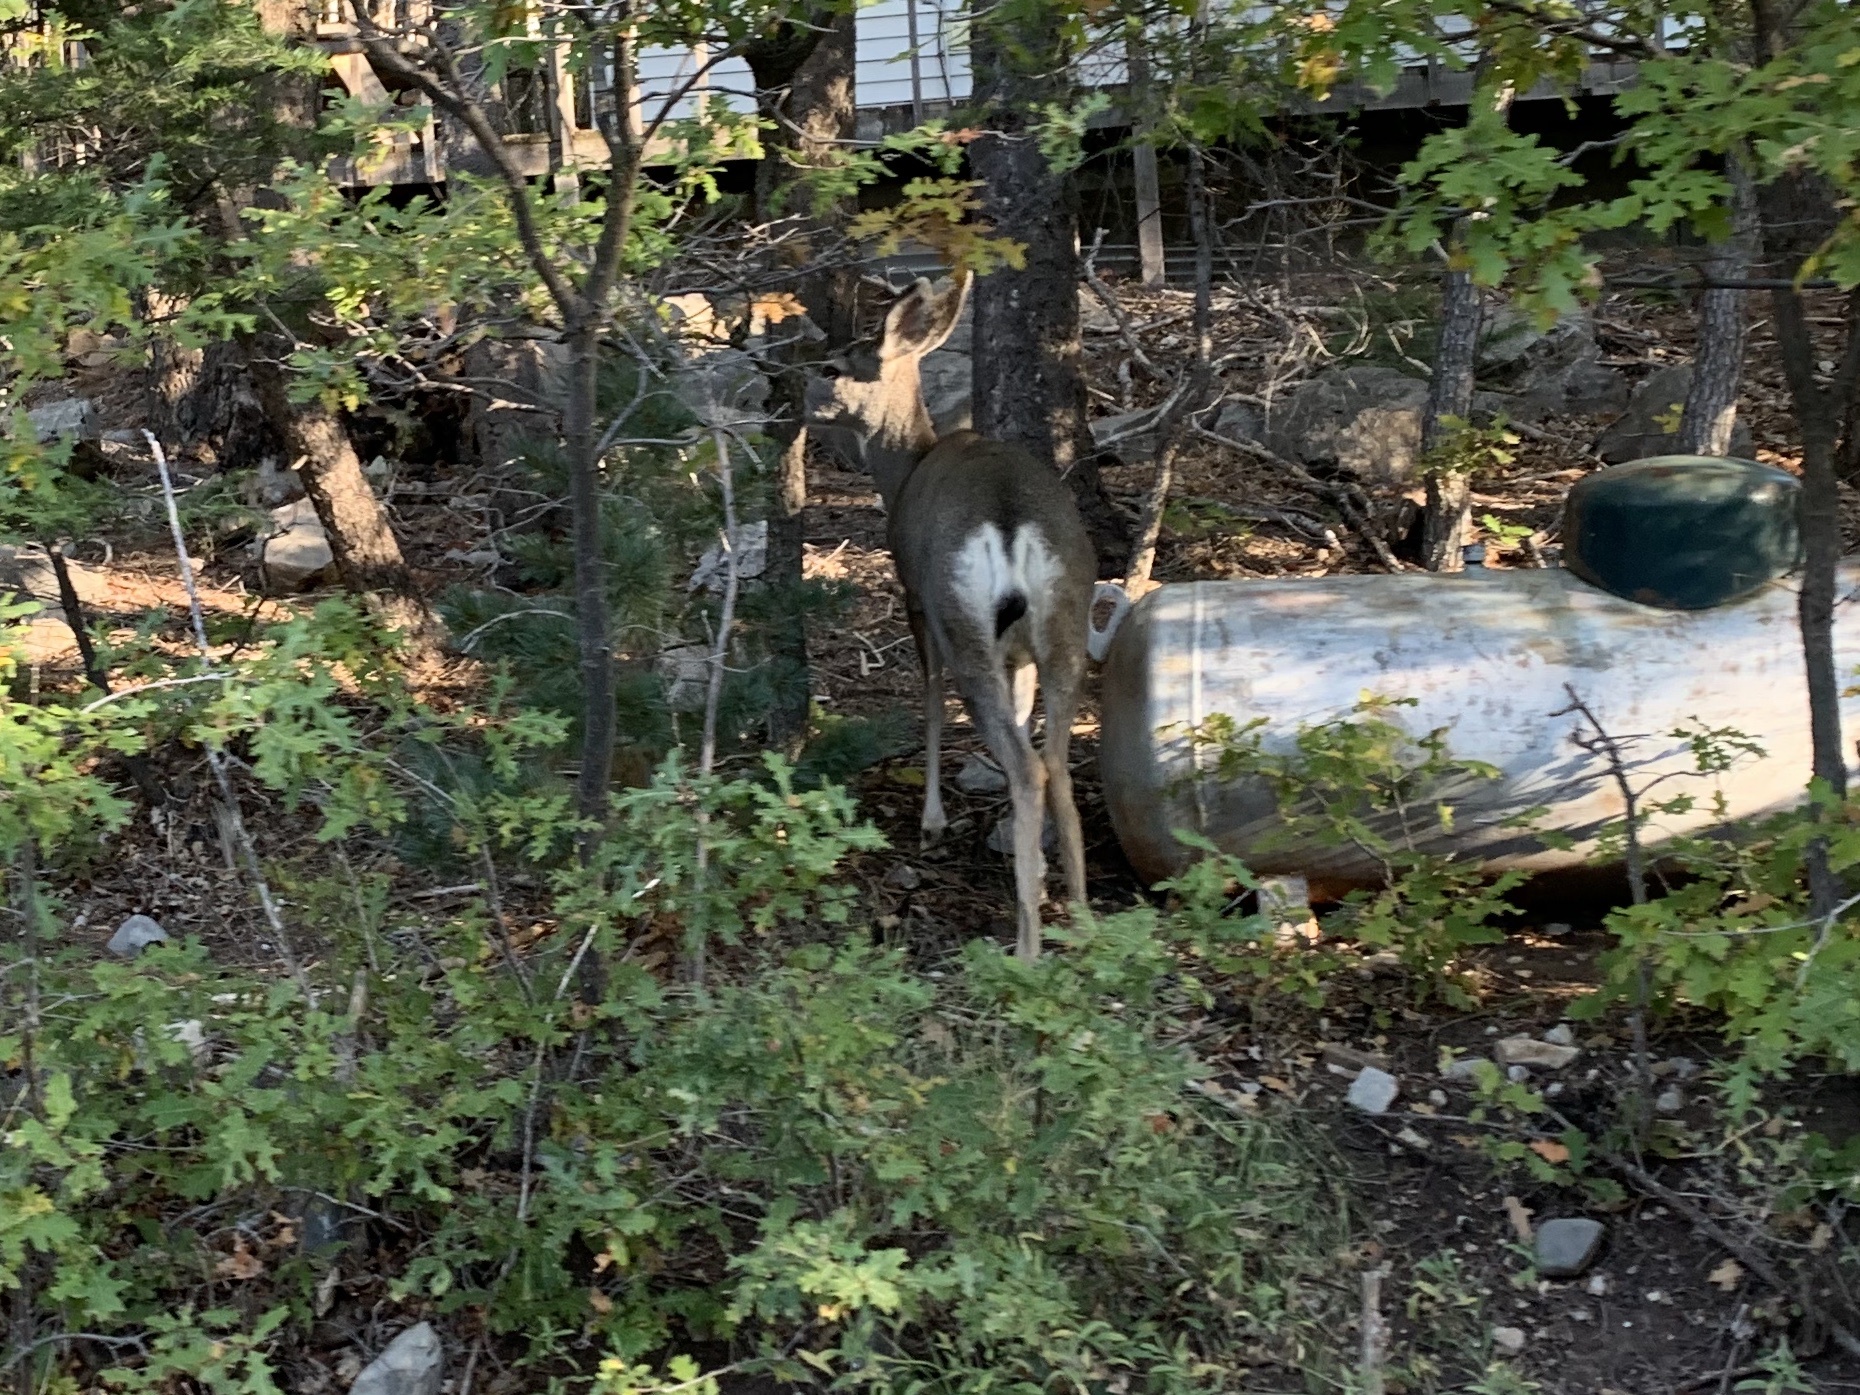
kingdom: Animalia
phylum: Chordata
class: Mammalia
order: Artiodactyla
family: Cervidae
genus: Odocoileus
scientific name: Odocoileus hemionus
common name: Mule deer
